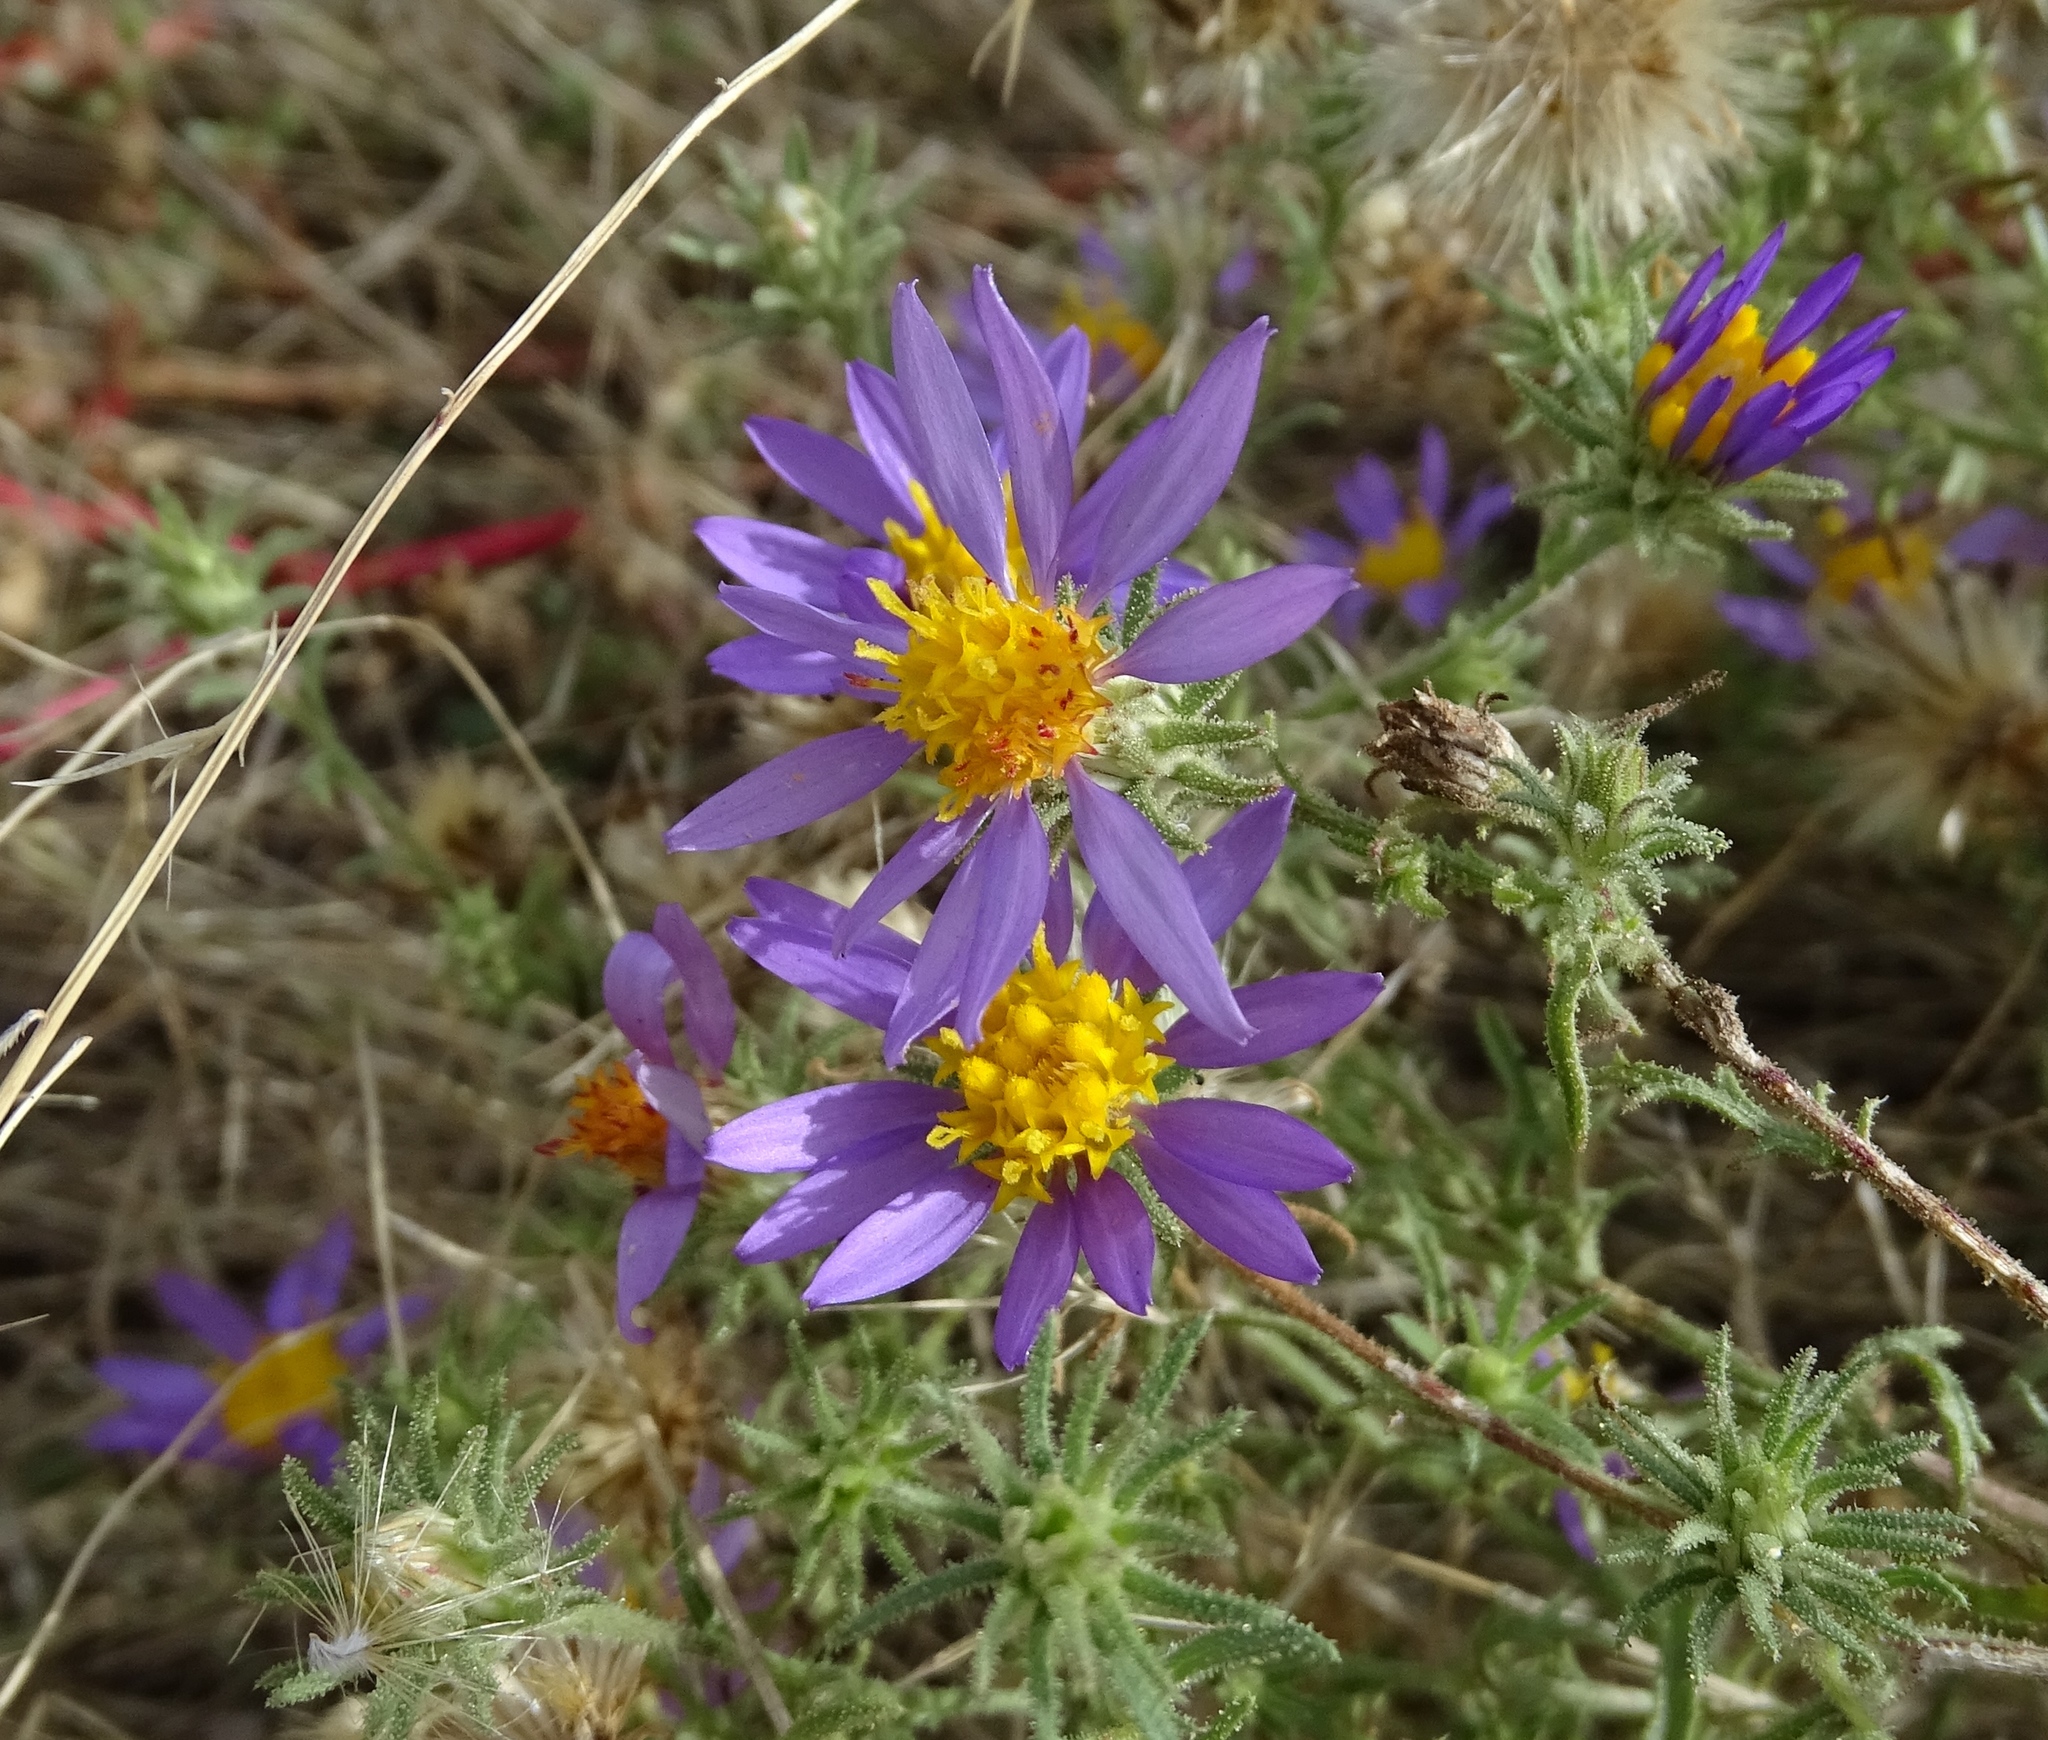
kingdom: Plantae
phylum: Tracheophyta
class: Magnoliopsida
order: Asterales
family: Asteraceae
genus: Dieteria
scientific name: Dieteria asteroides
